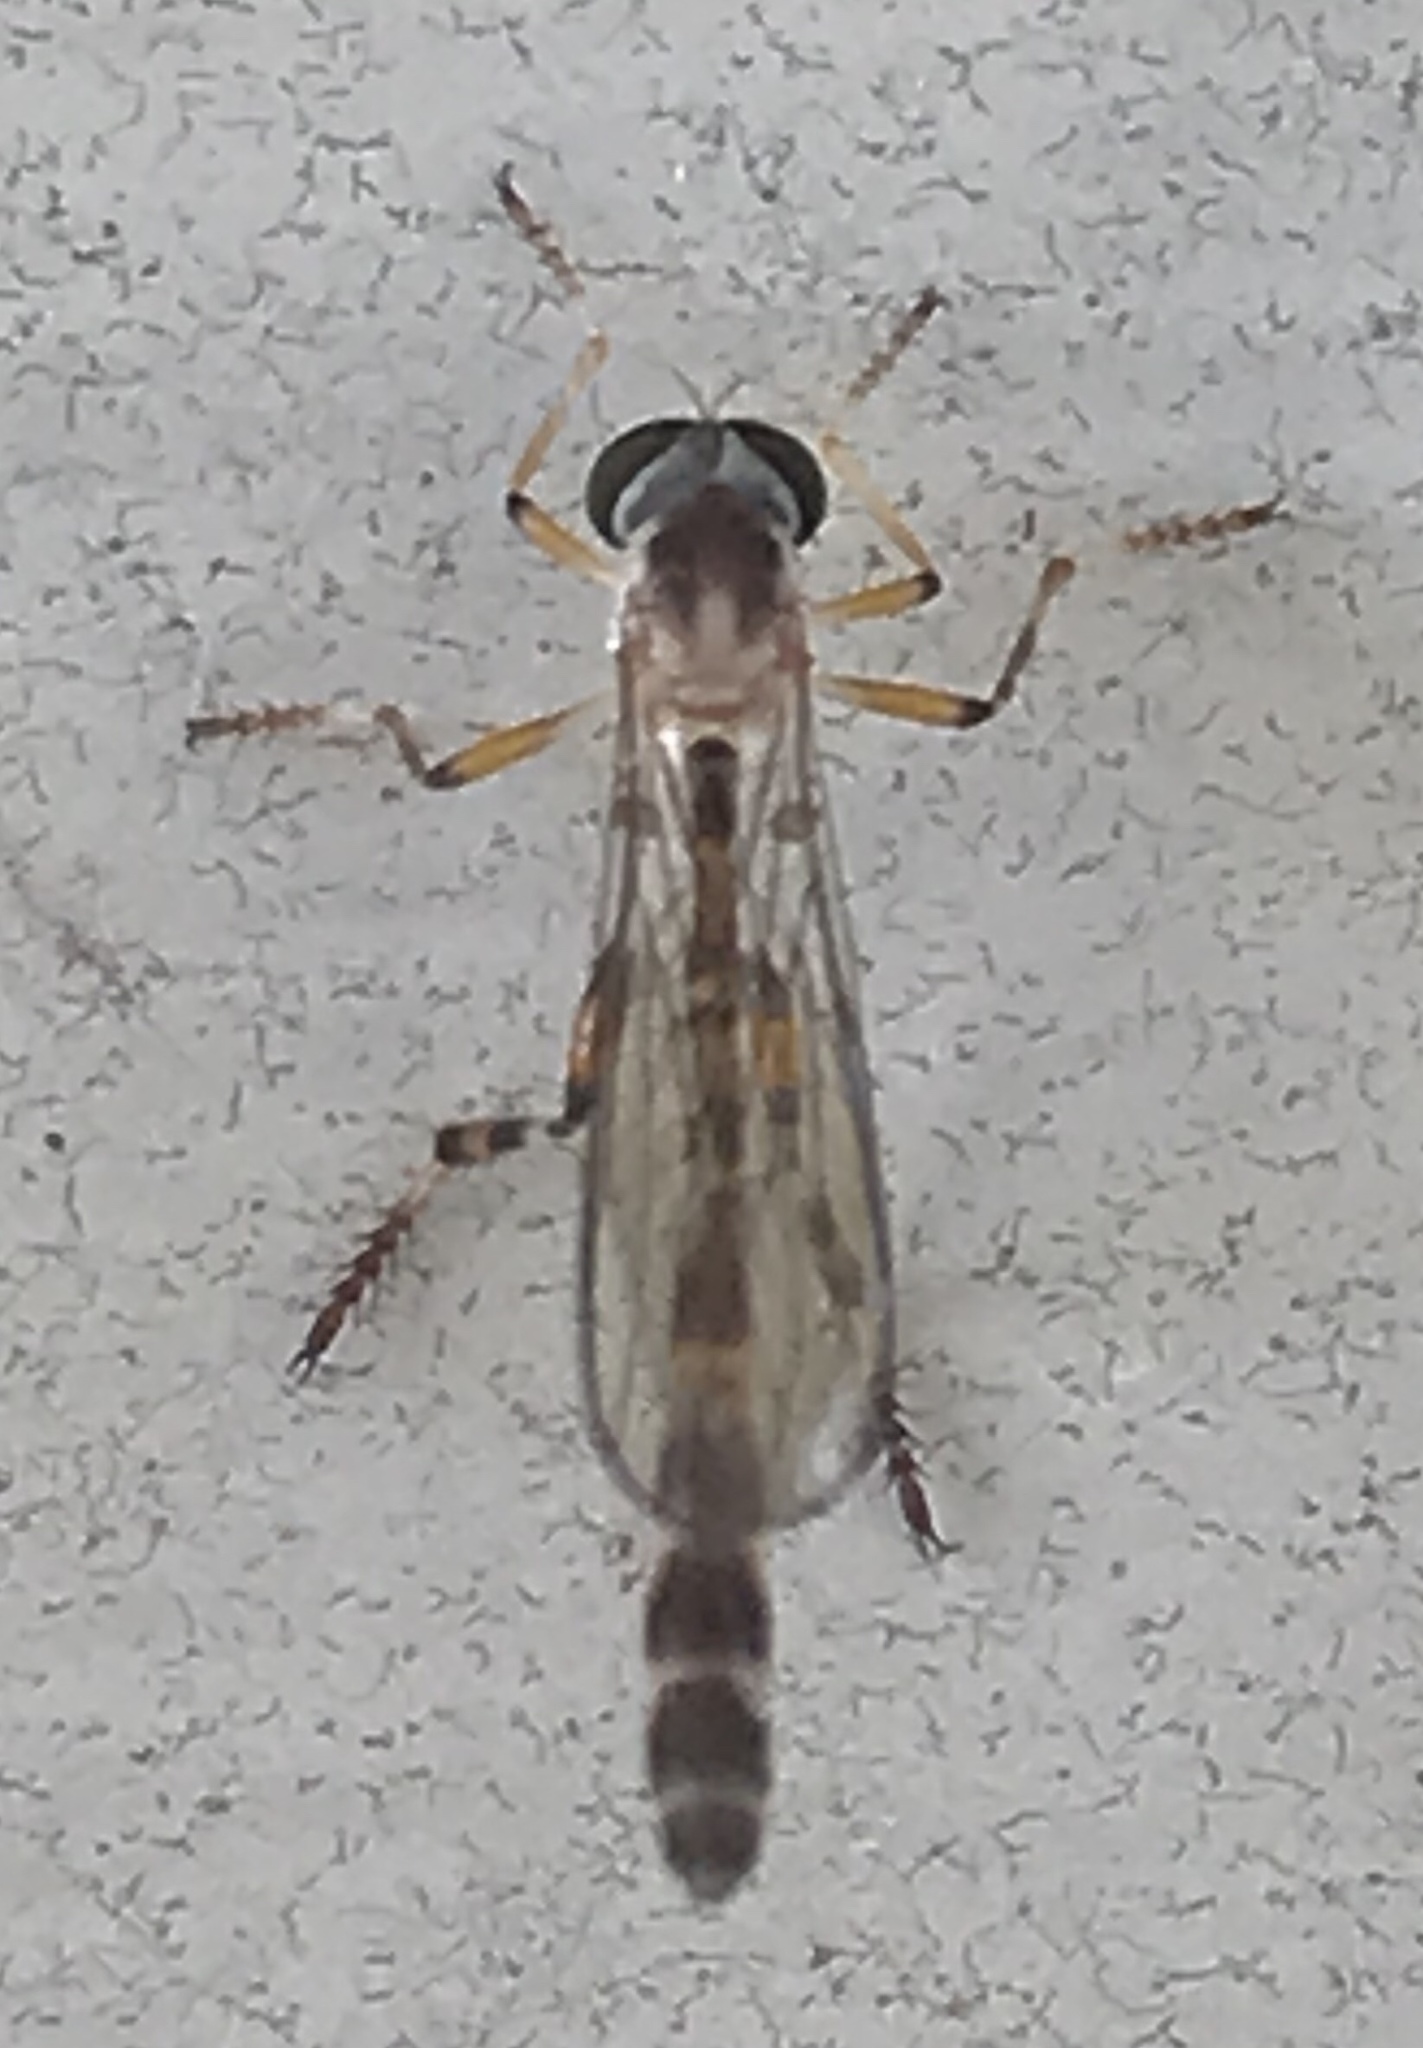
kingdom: Animalia
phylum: Arthropoda
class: Insecta
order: Diptera
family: Asilidae
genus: Psilonyx
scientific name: Psilonyx annulatus
